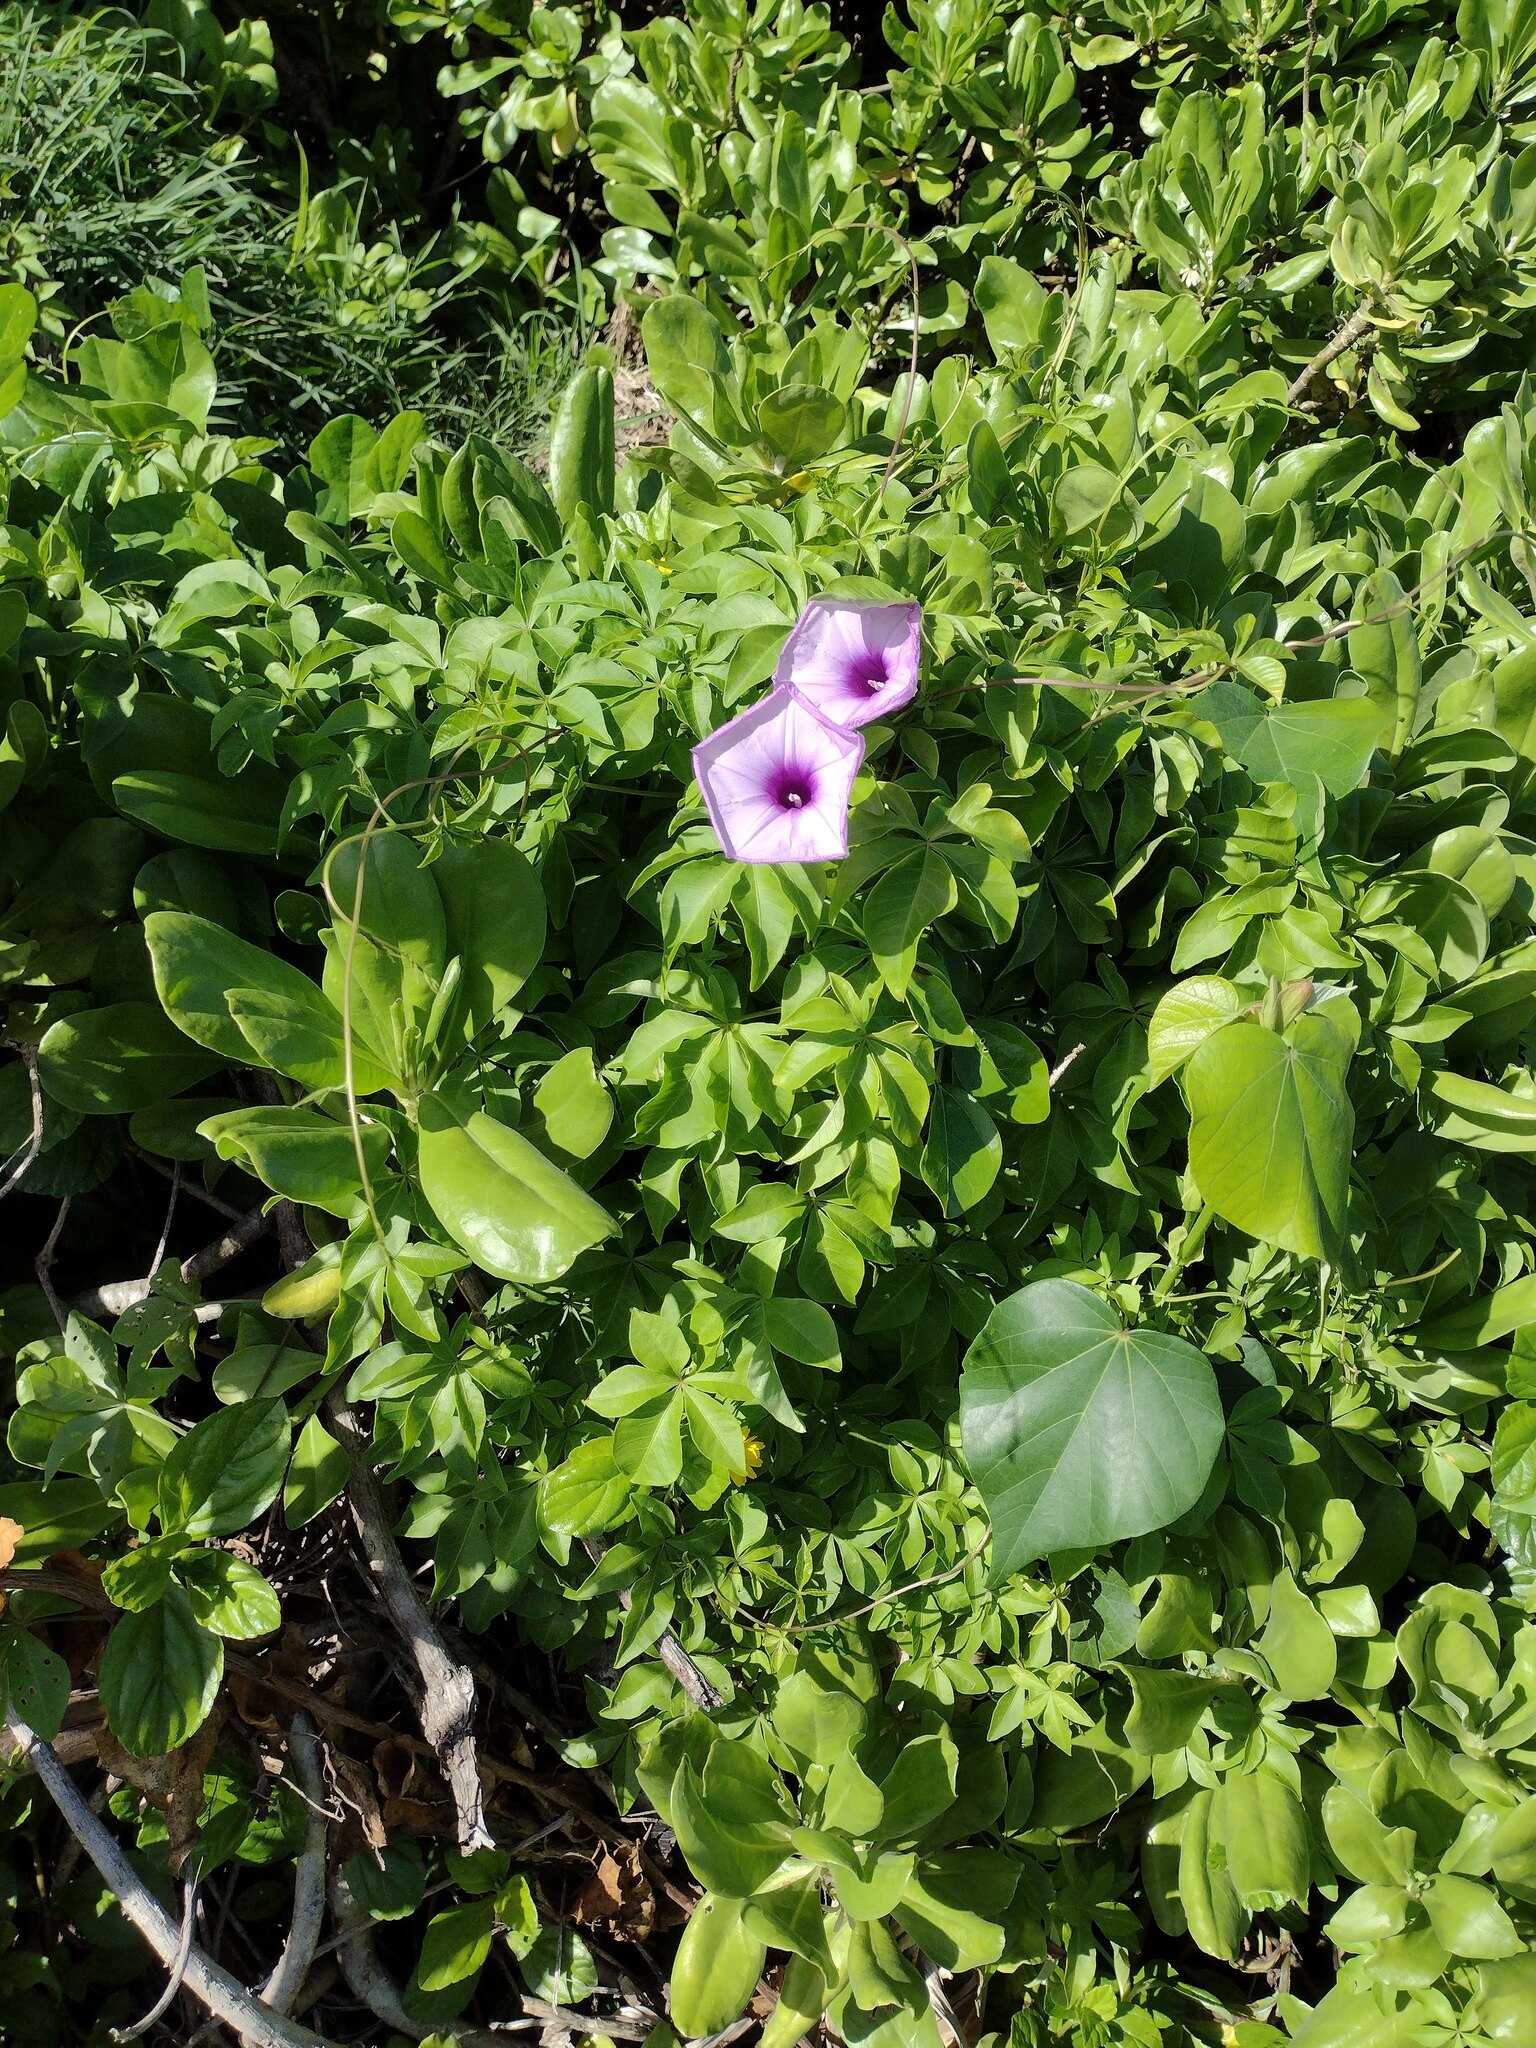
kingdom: Plantae
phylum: Tracheophyta
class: Magnoliopsida
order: Solanales
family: Convolvulaceae
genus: Ipomoea
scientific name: Ipomoea cairica
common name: Mile a minute vine
